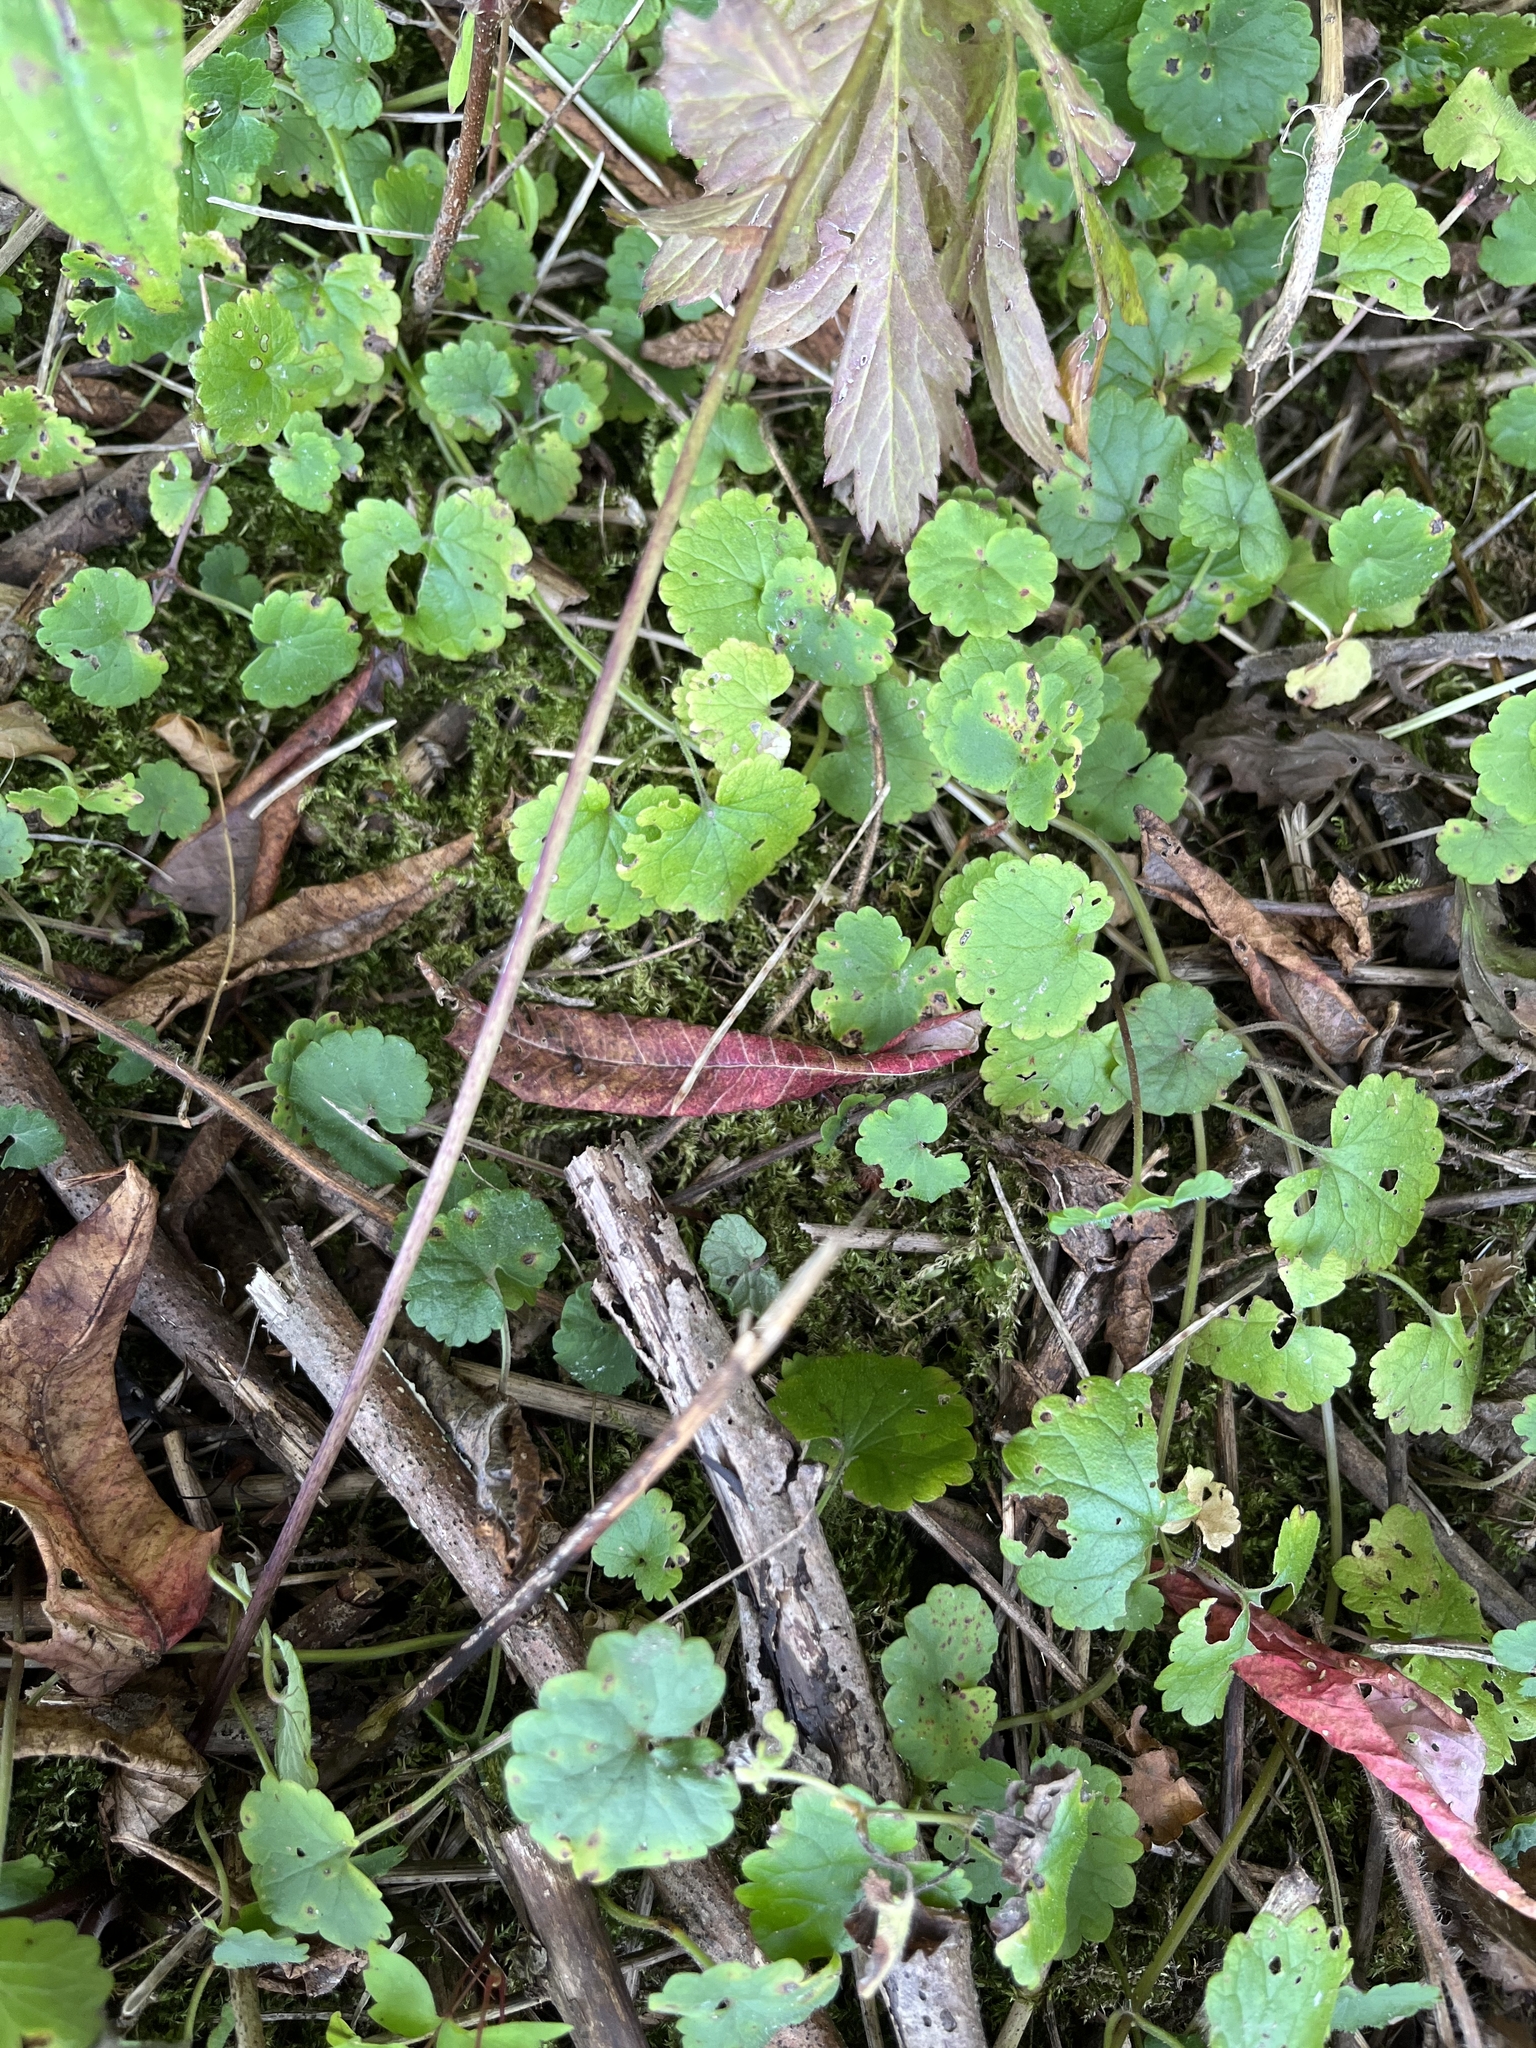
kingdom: Plantae
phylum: Tracheophyta
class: Magnoliopsida
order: Lamiales
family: Lamiaceae
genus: Glechoma
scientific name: Glechoma hederacea
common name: Ground ivy
